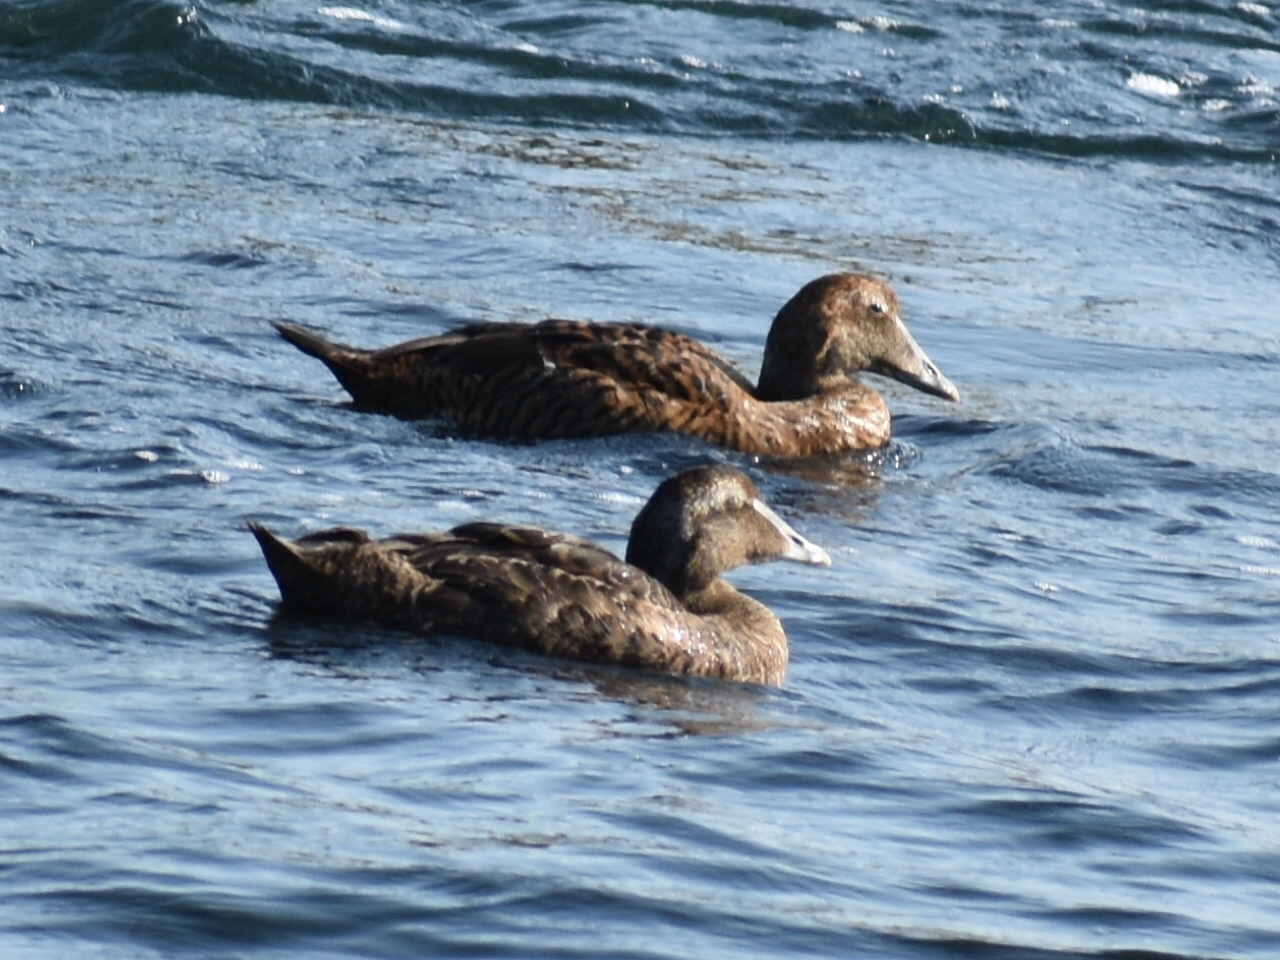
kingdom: Animalia
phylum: Chordata
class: Aves
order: Anseriformes
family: Anatidae
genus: Somateria
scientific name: Somateria mollissima
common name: Common eider
